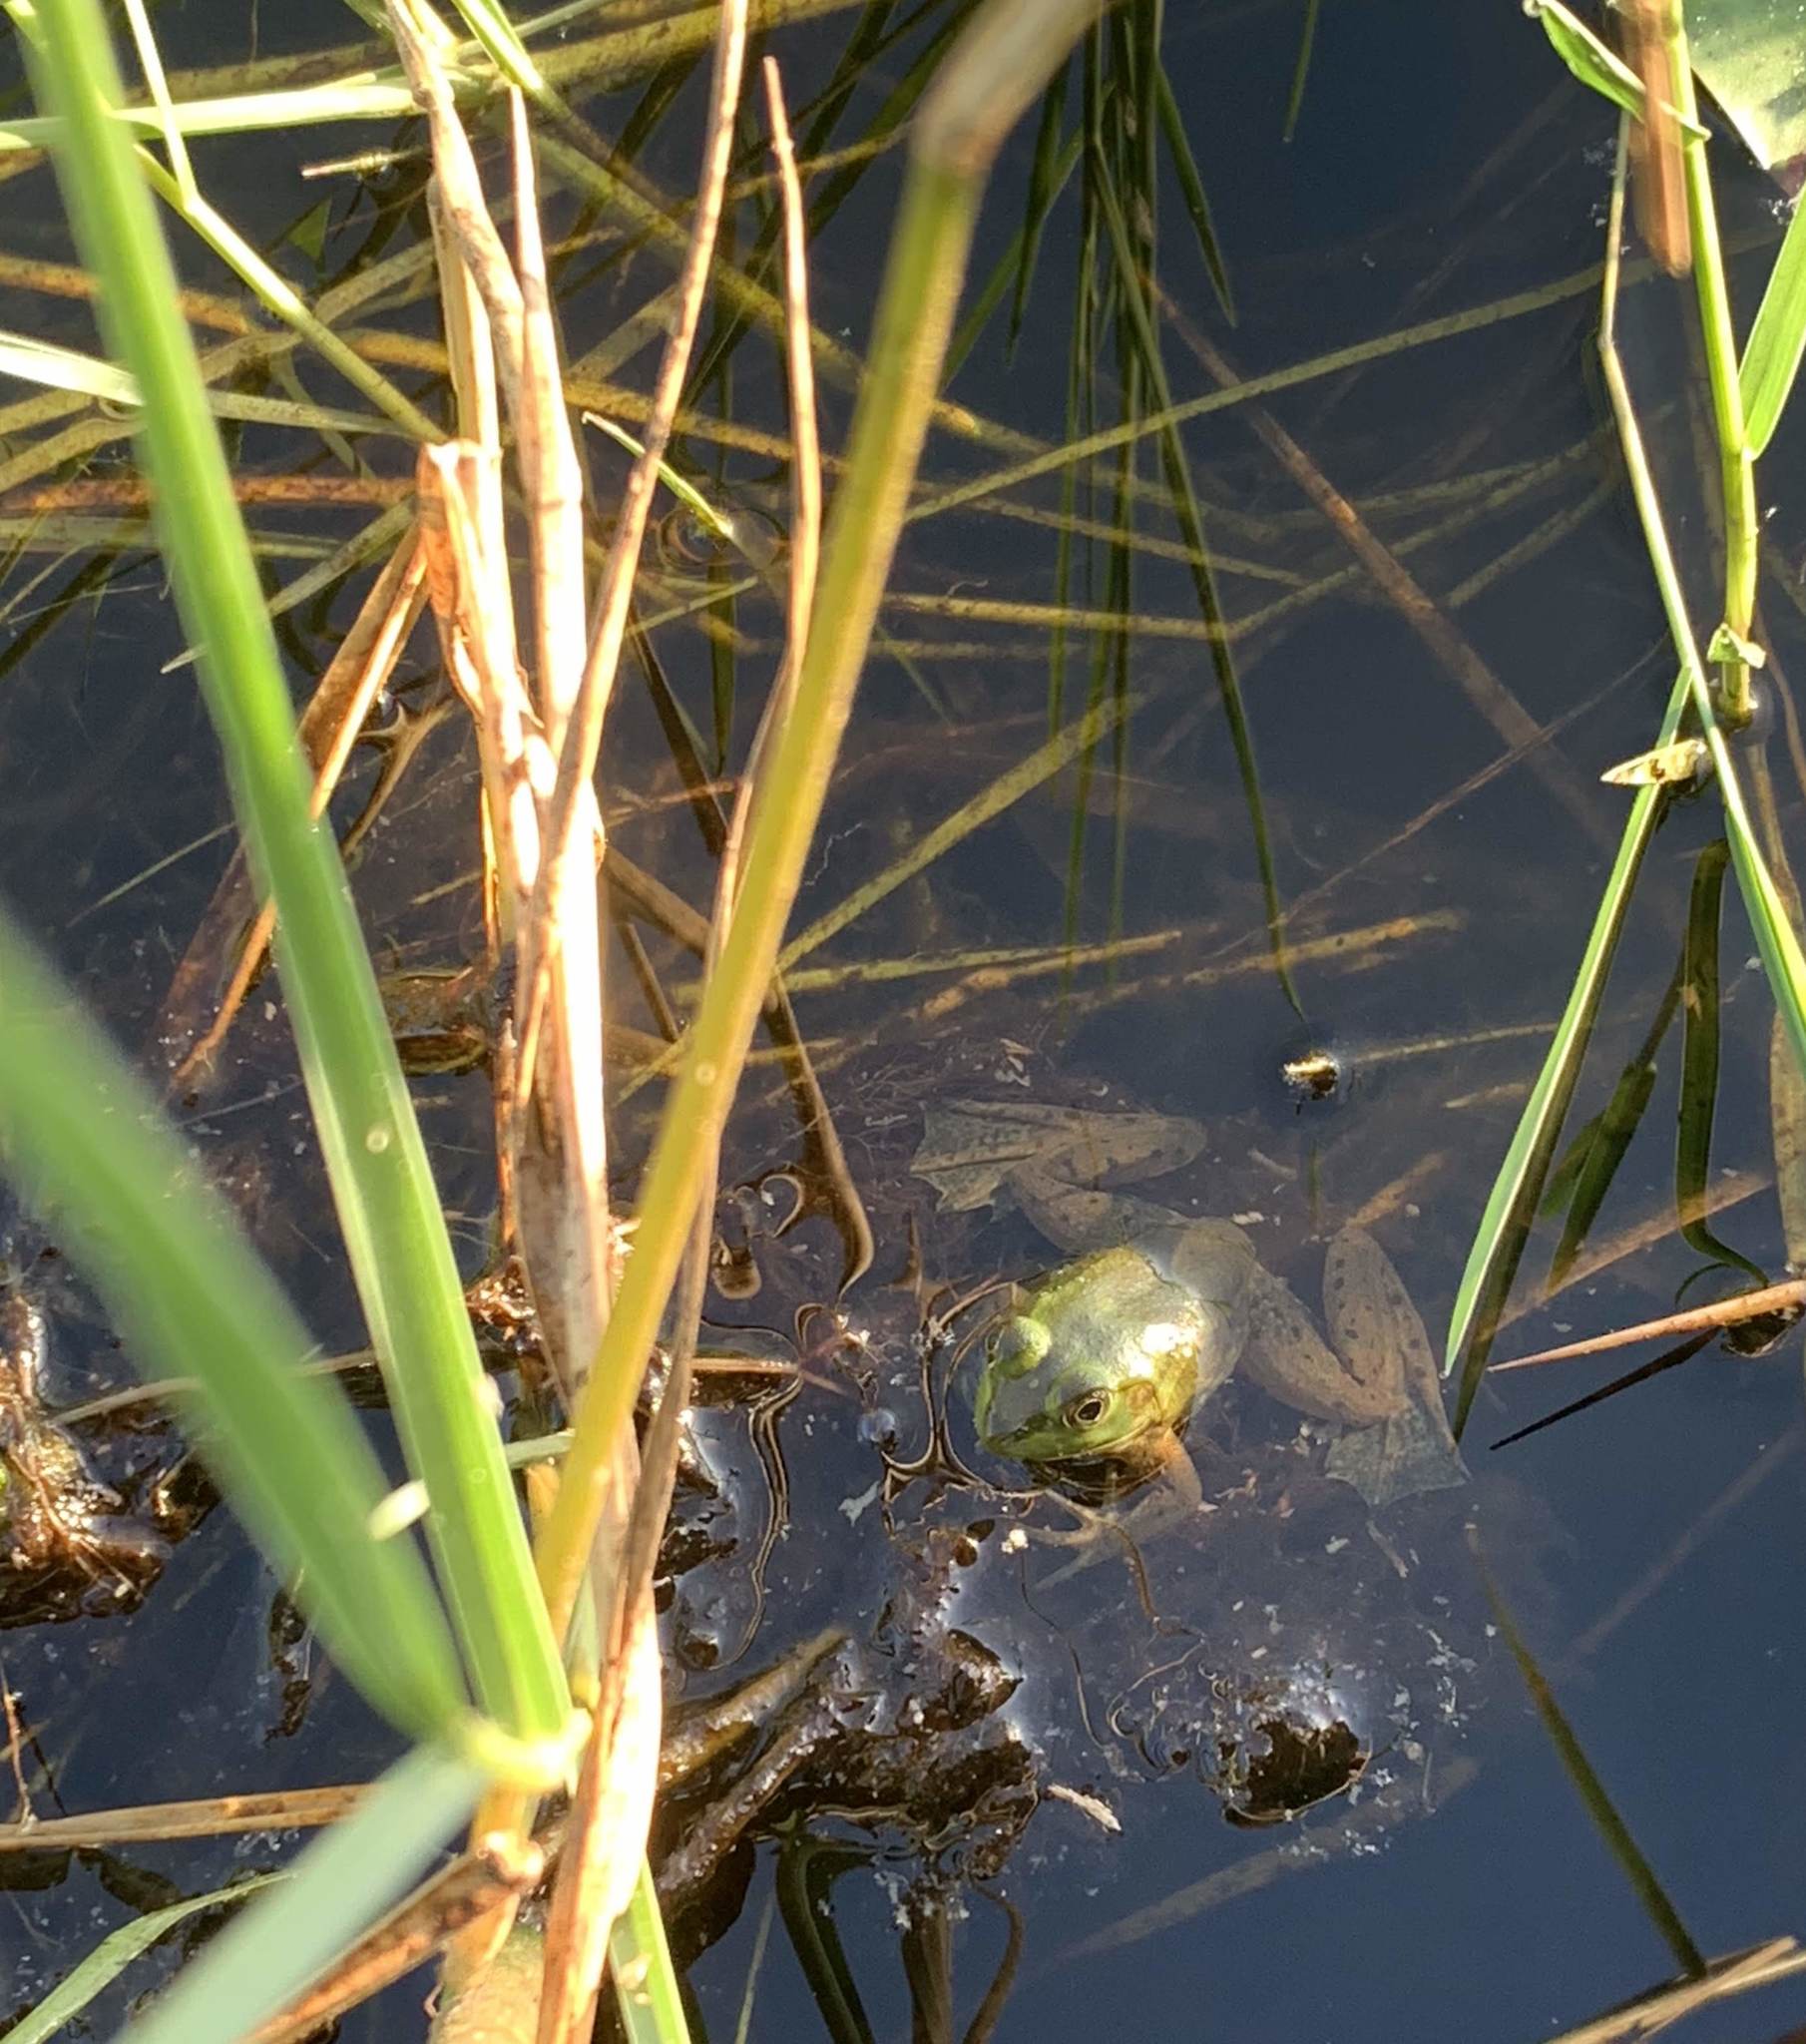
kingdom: Animalia
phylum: Chordata
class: Amphibia
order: Anura
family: Ranidae
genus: Lithobates
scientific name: Lithobates grylio
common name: Pig frog
